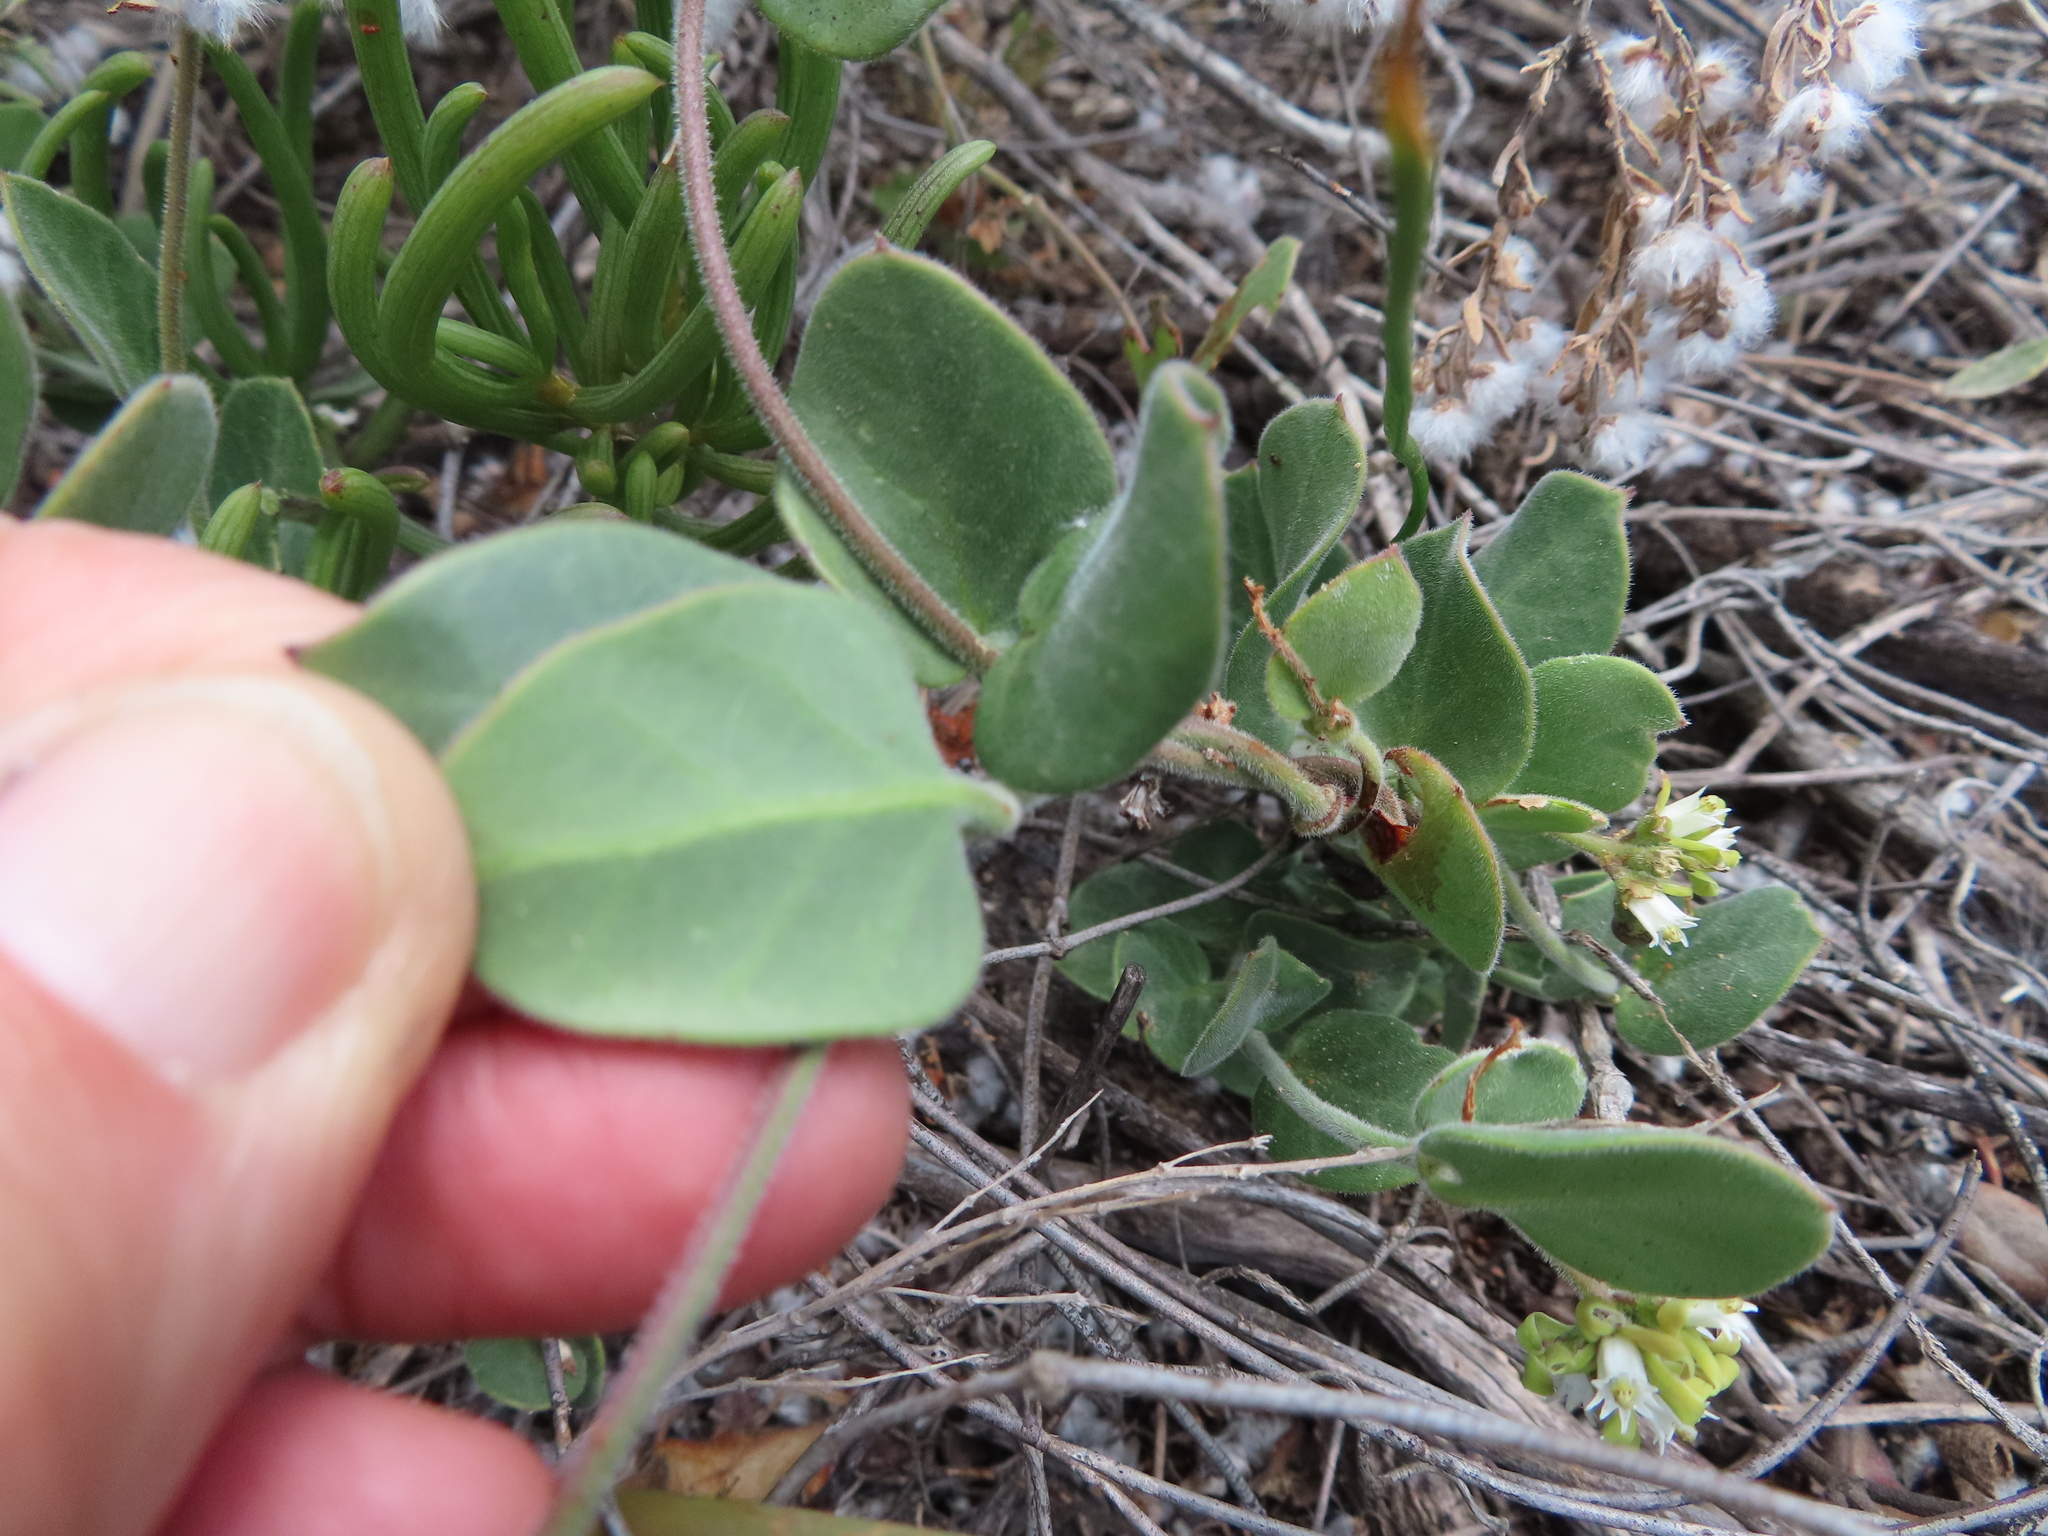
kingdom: Plantae
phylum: Tracheophyta
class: Magnoliopsida
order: Gentianales
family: Apocynaceae
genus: Cynanchum
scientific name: Cynanchum africanum
